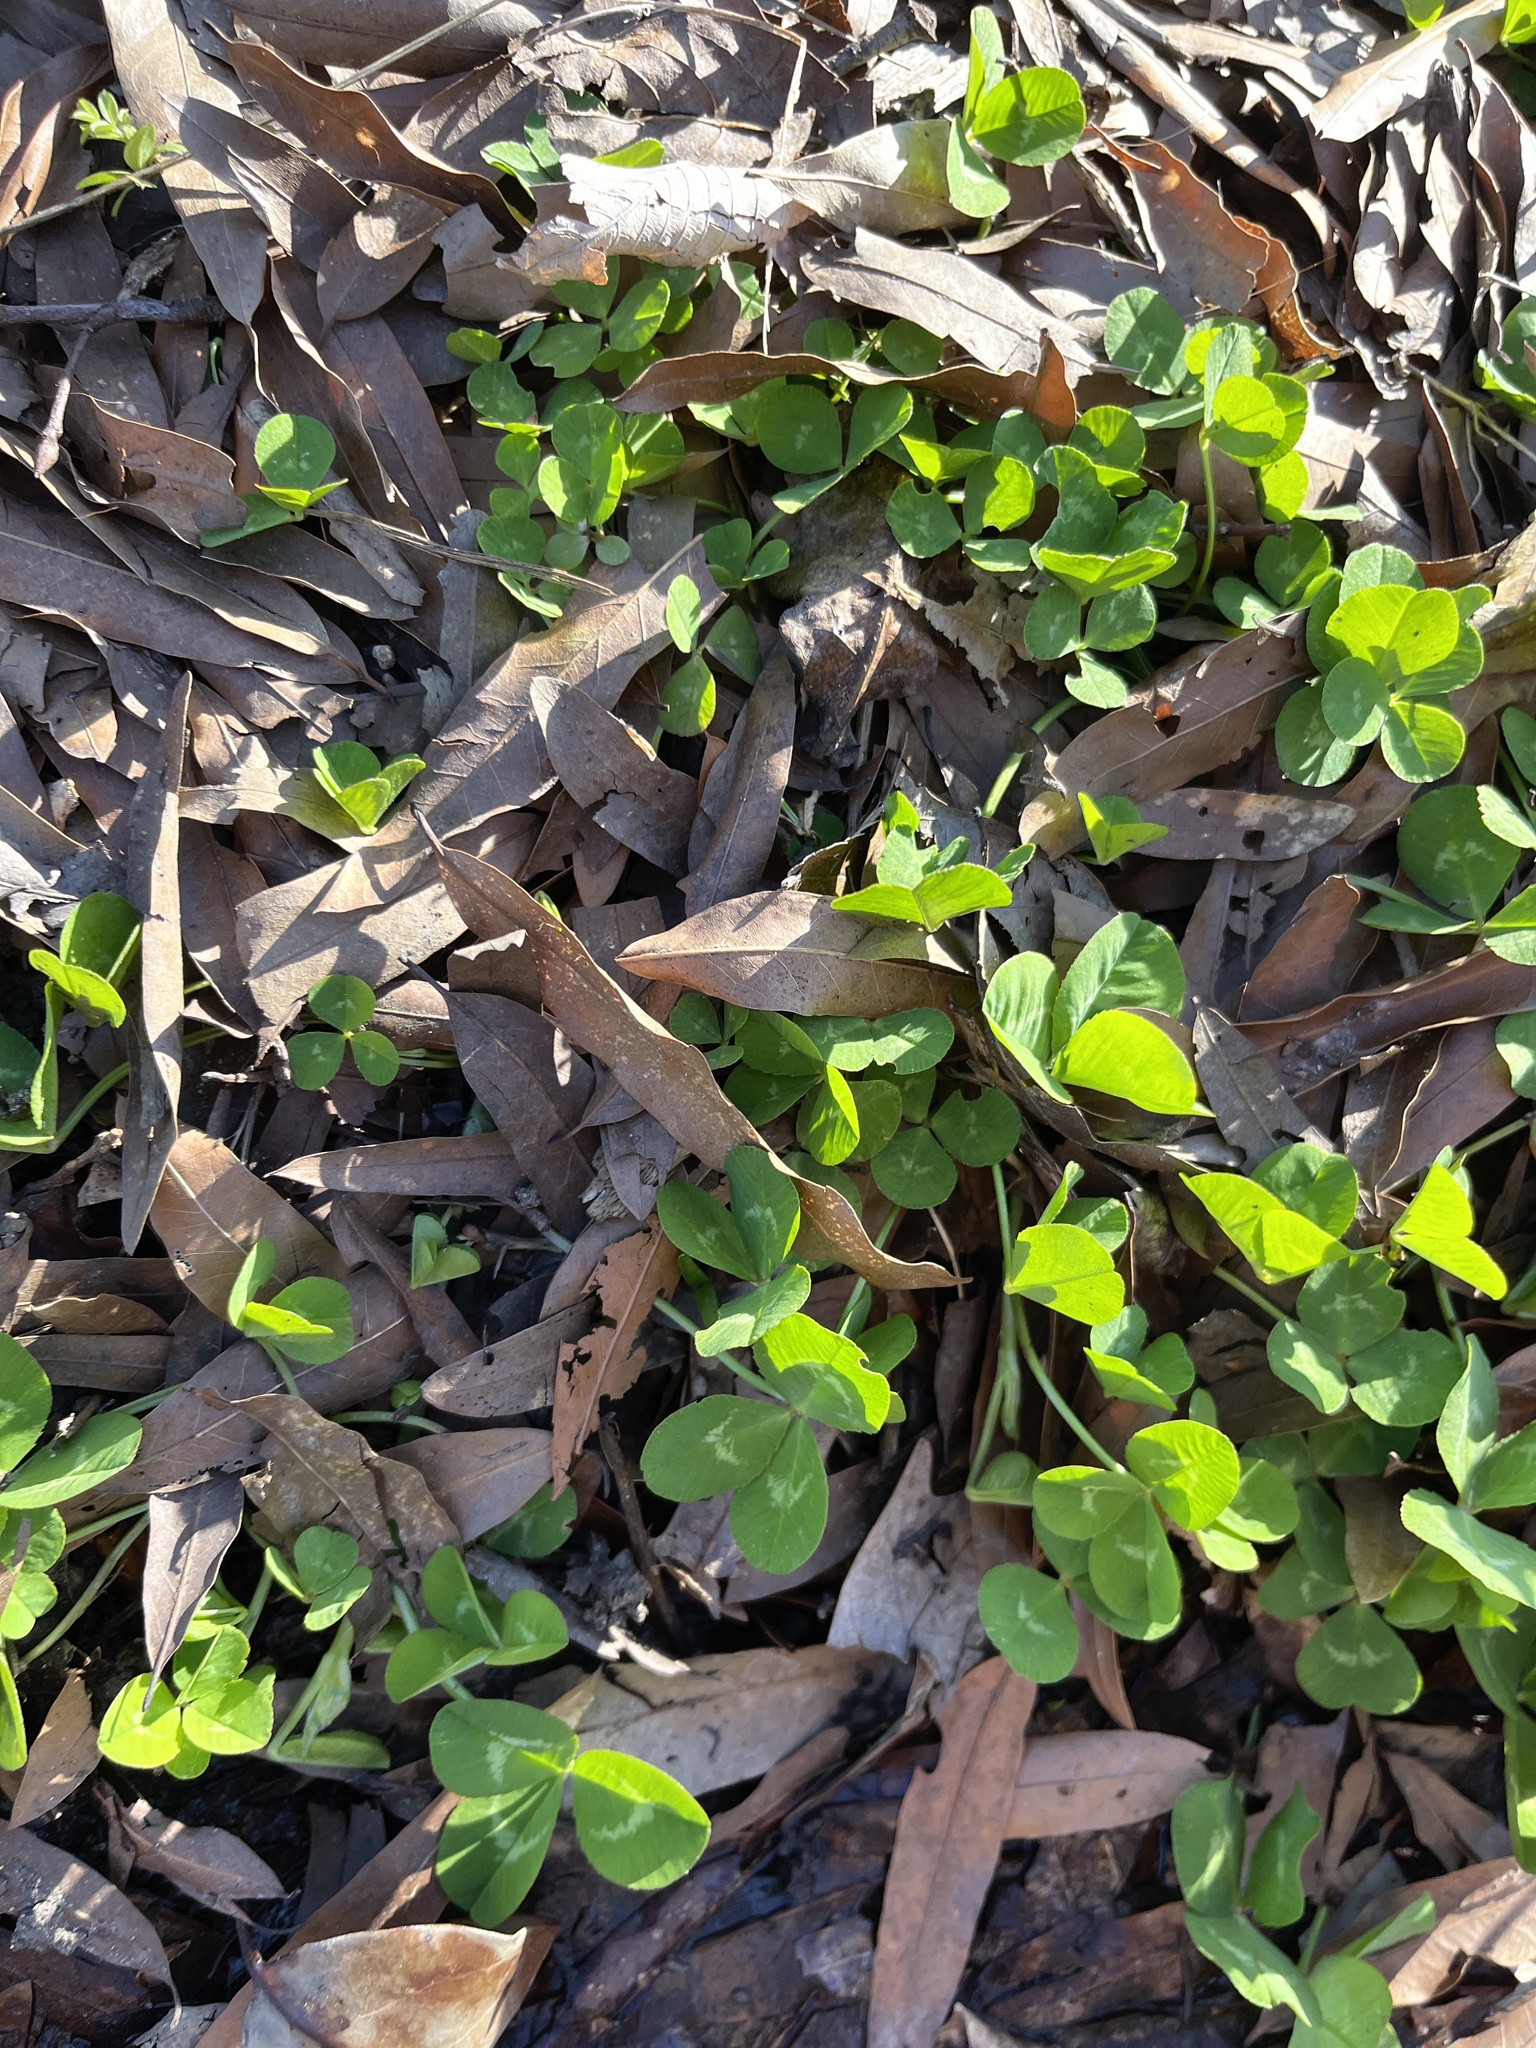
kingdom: Plantae
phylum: Tracheophyta
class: Magnoliopsida
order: Fabales
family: Fabaceae
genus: Trifolium
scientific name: Trifolium repens
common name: White clover
